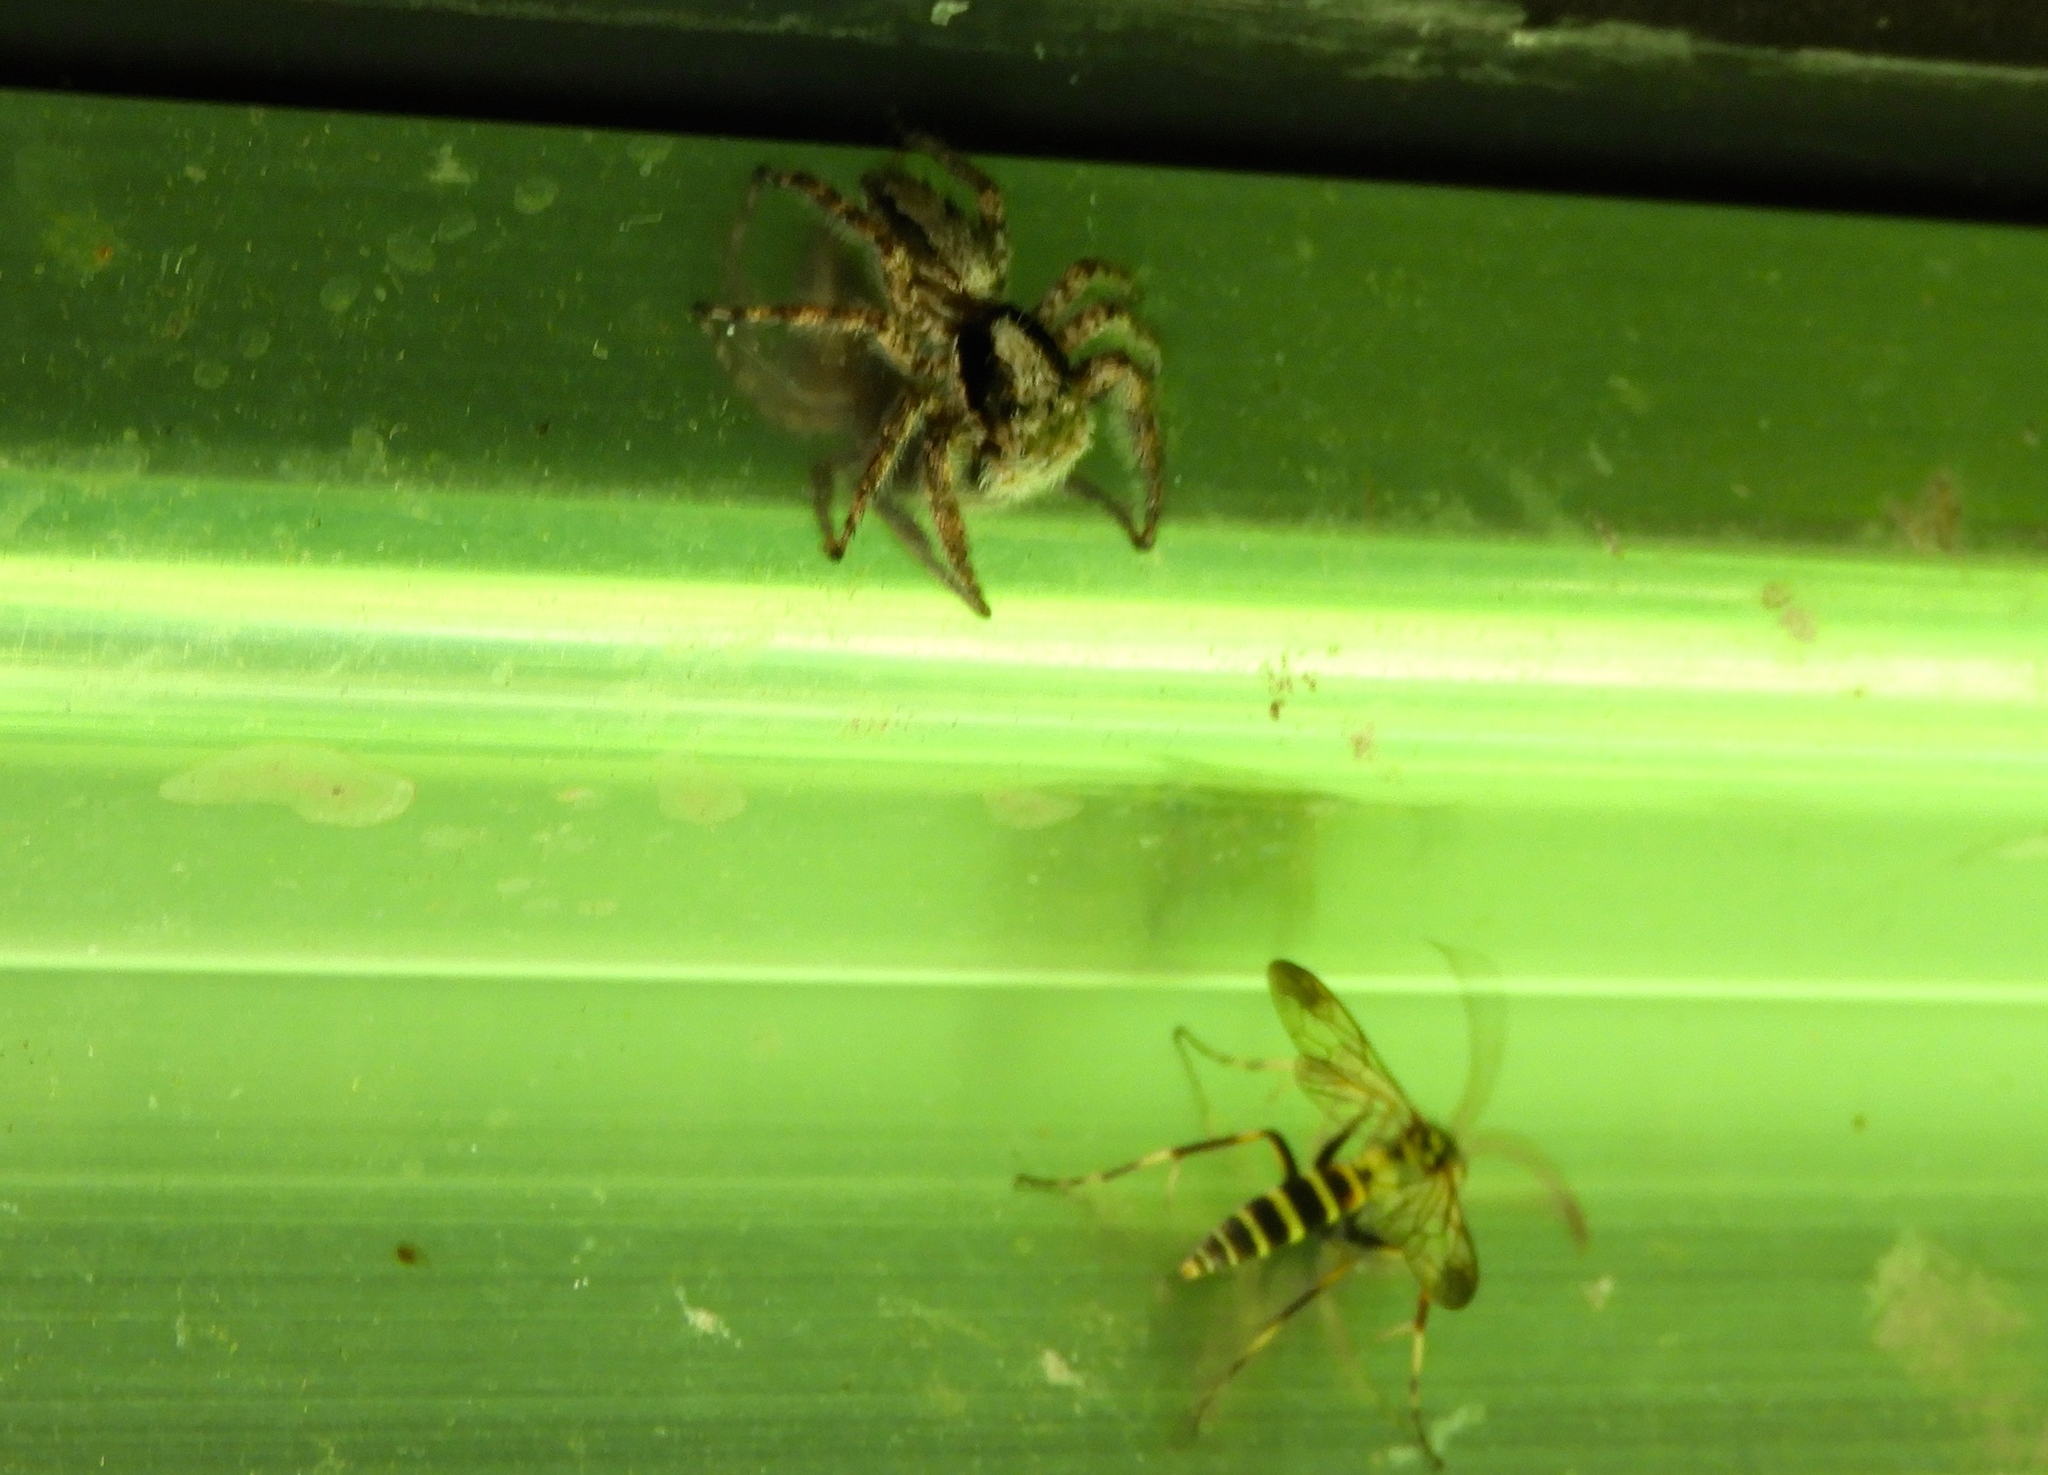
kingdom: Animalia
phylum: Arthropoda
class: Arachnida
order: Araneae
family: Salticidae
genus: Balmaceda
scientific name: Balmaceda
